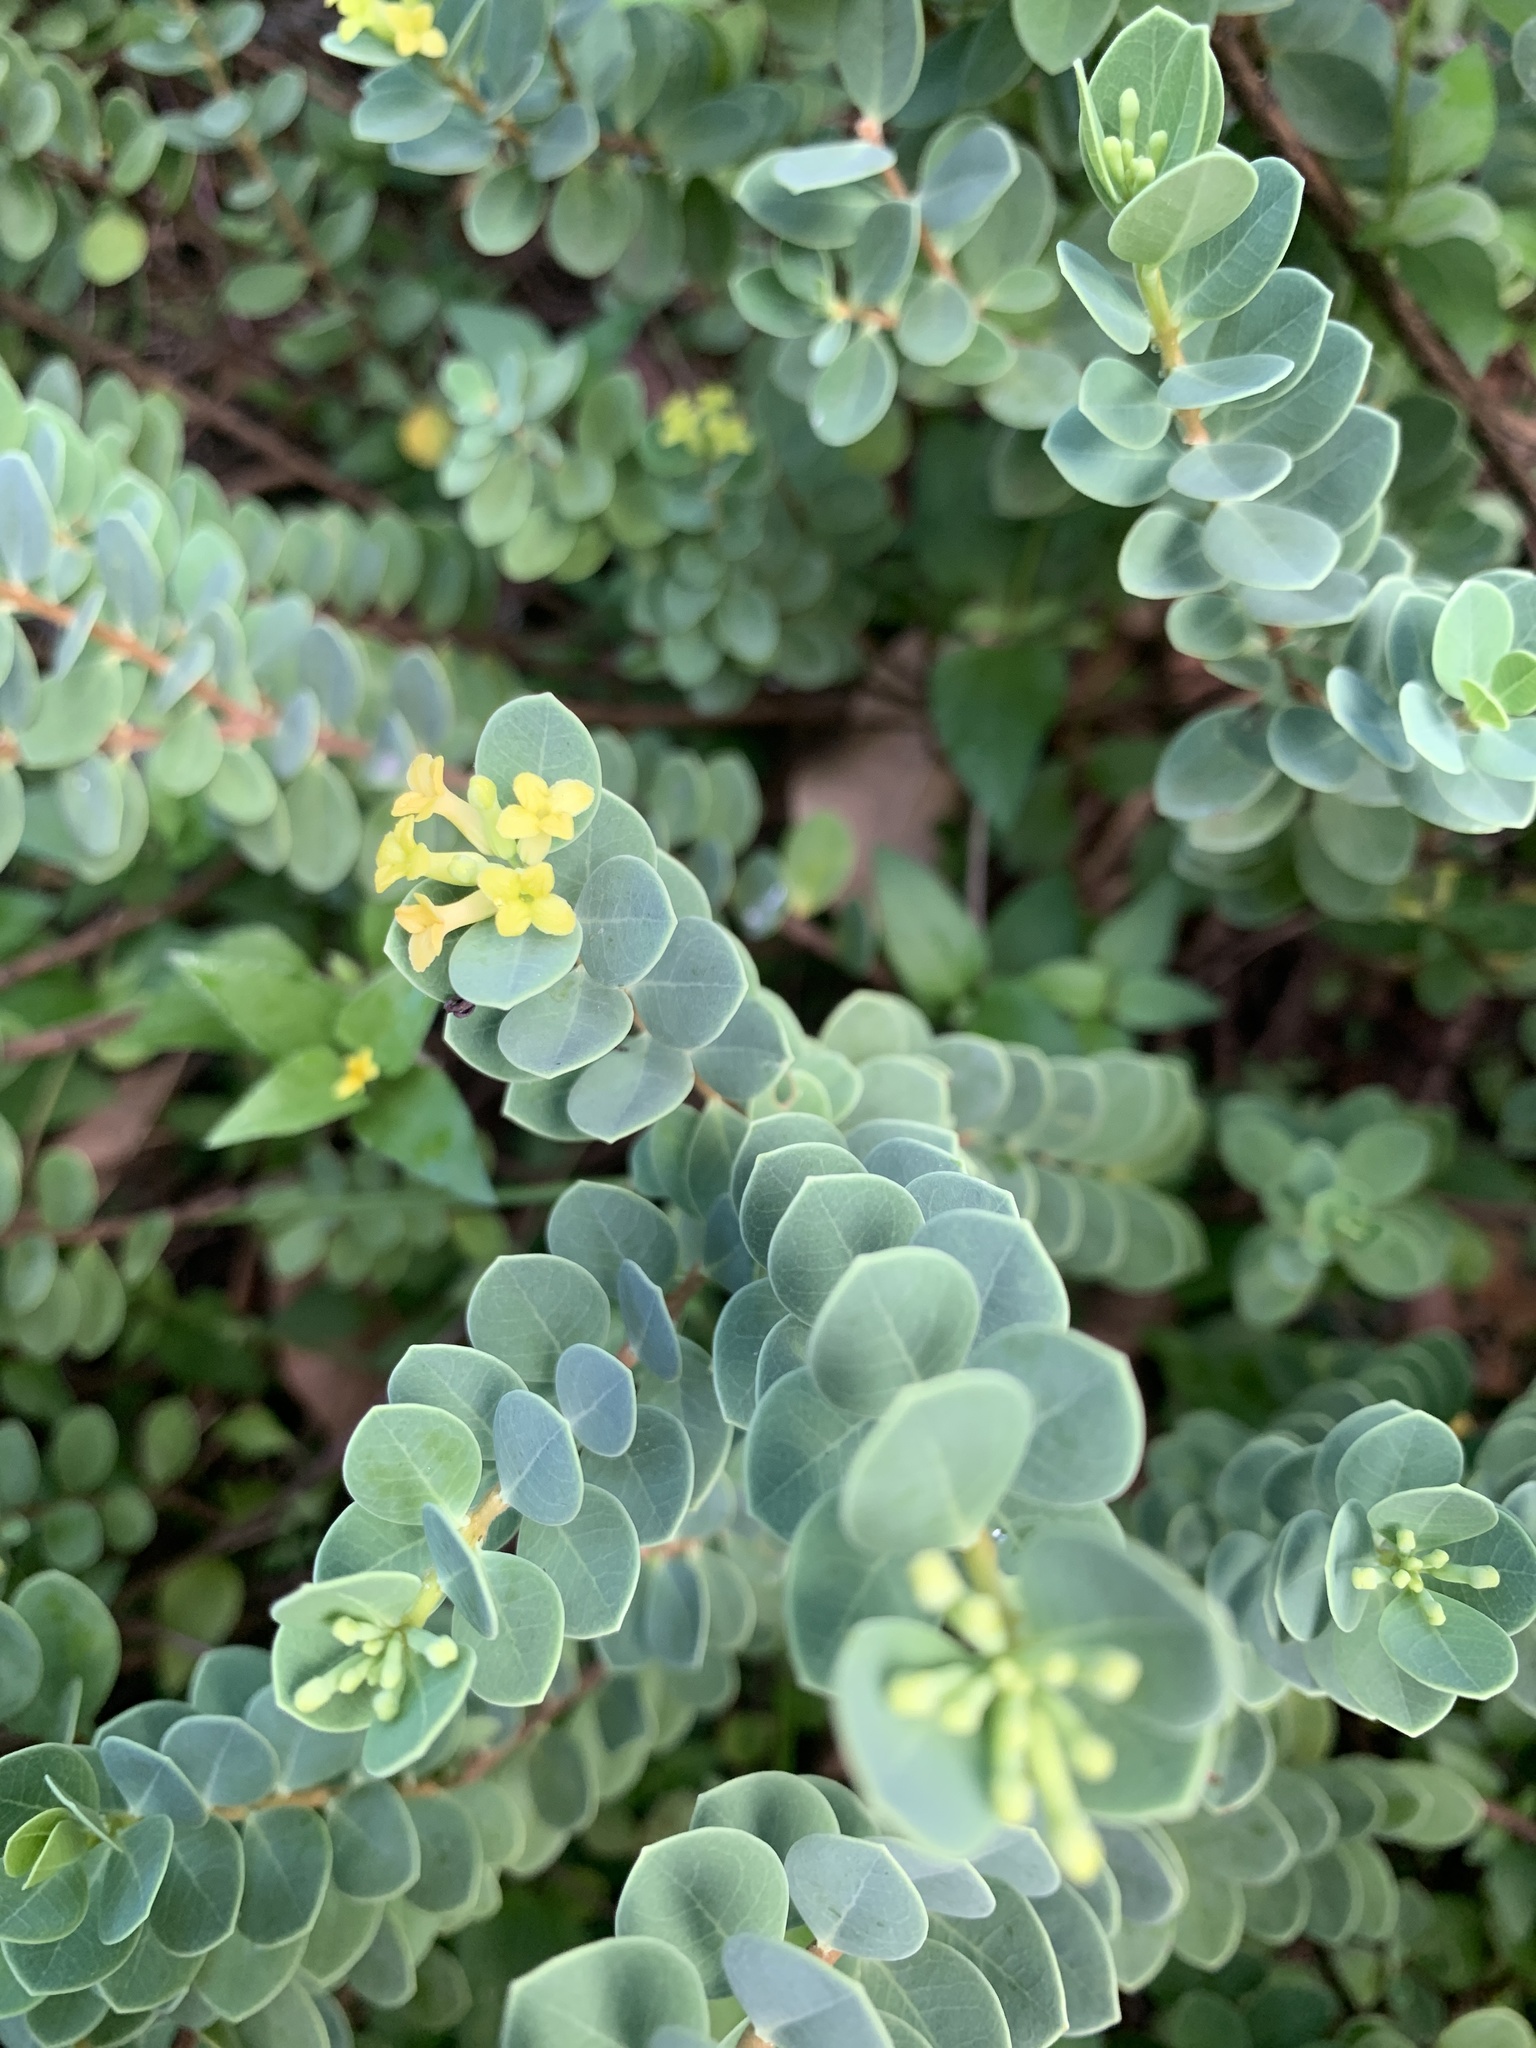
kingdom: Plantae
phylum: Tracheophyta
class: Magnoliopsida
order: Malvales
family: Thymelaeaceae
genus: Wikstroemia
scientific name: Wikstroemia uva-ursi
